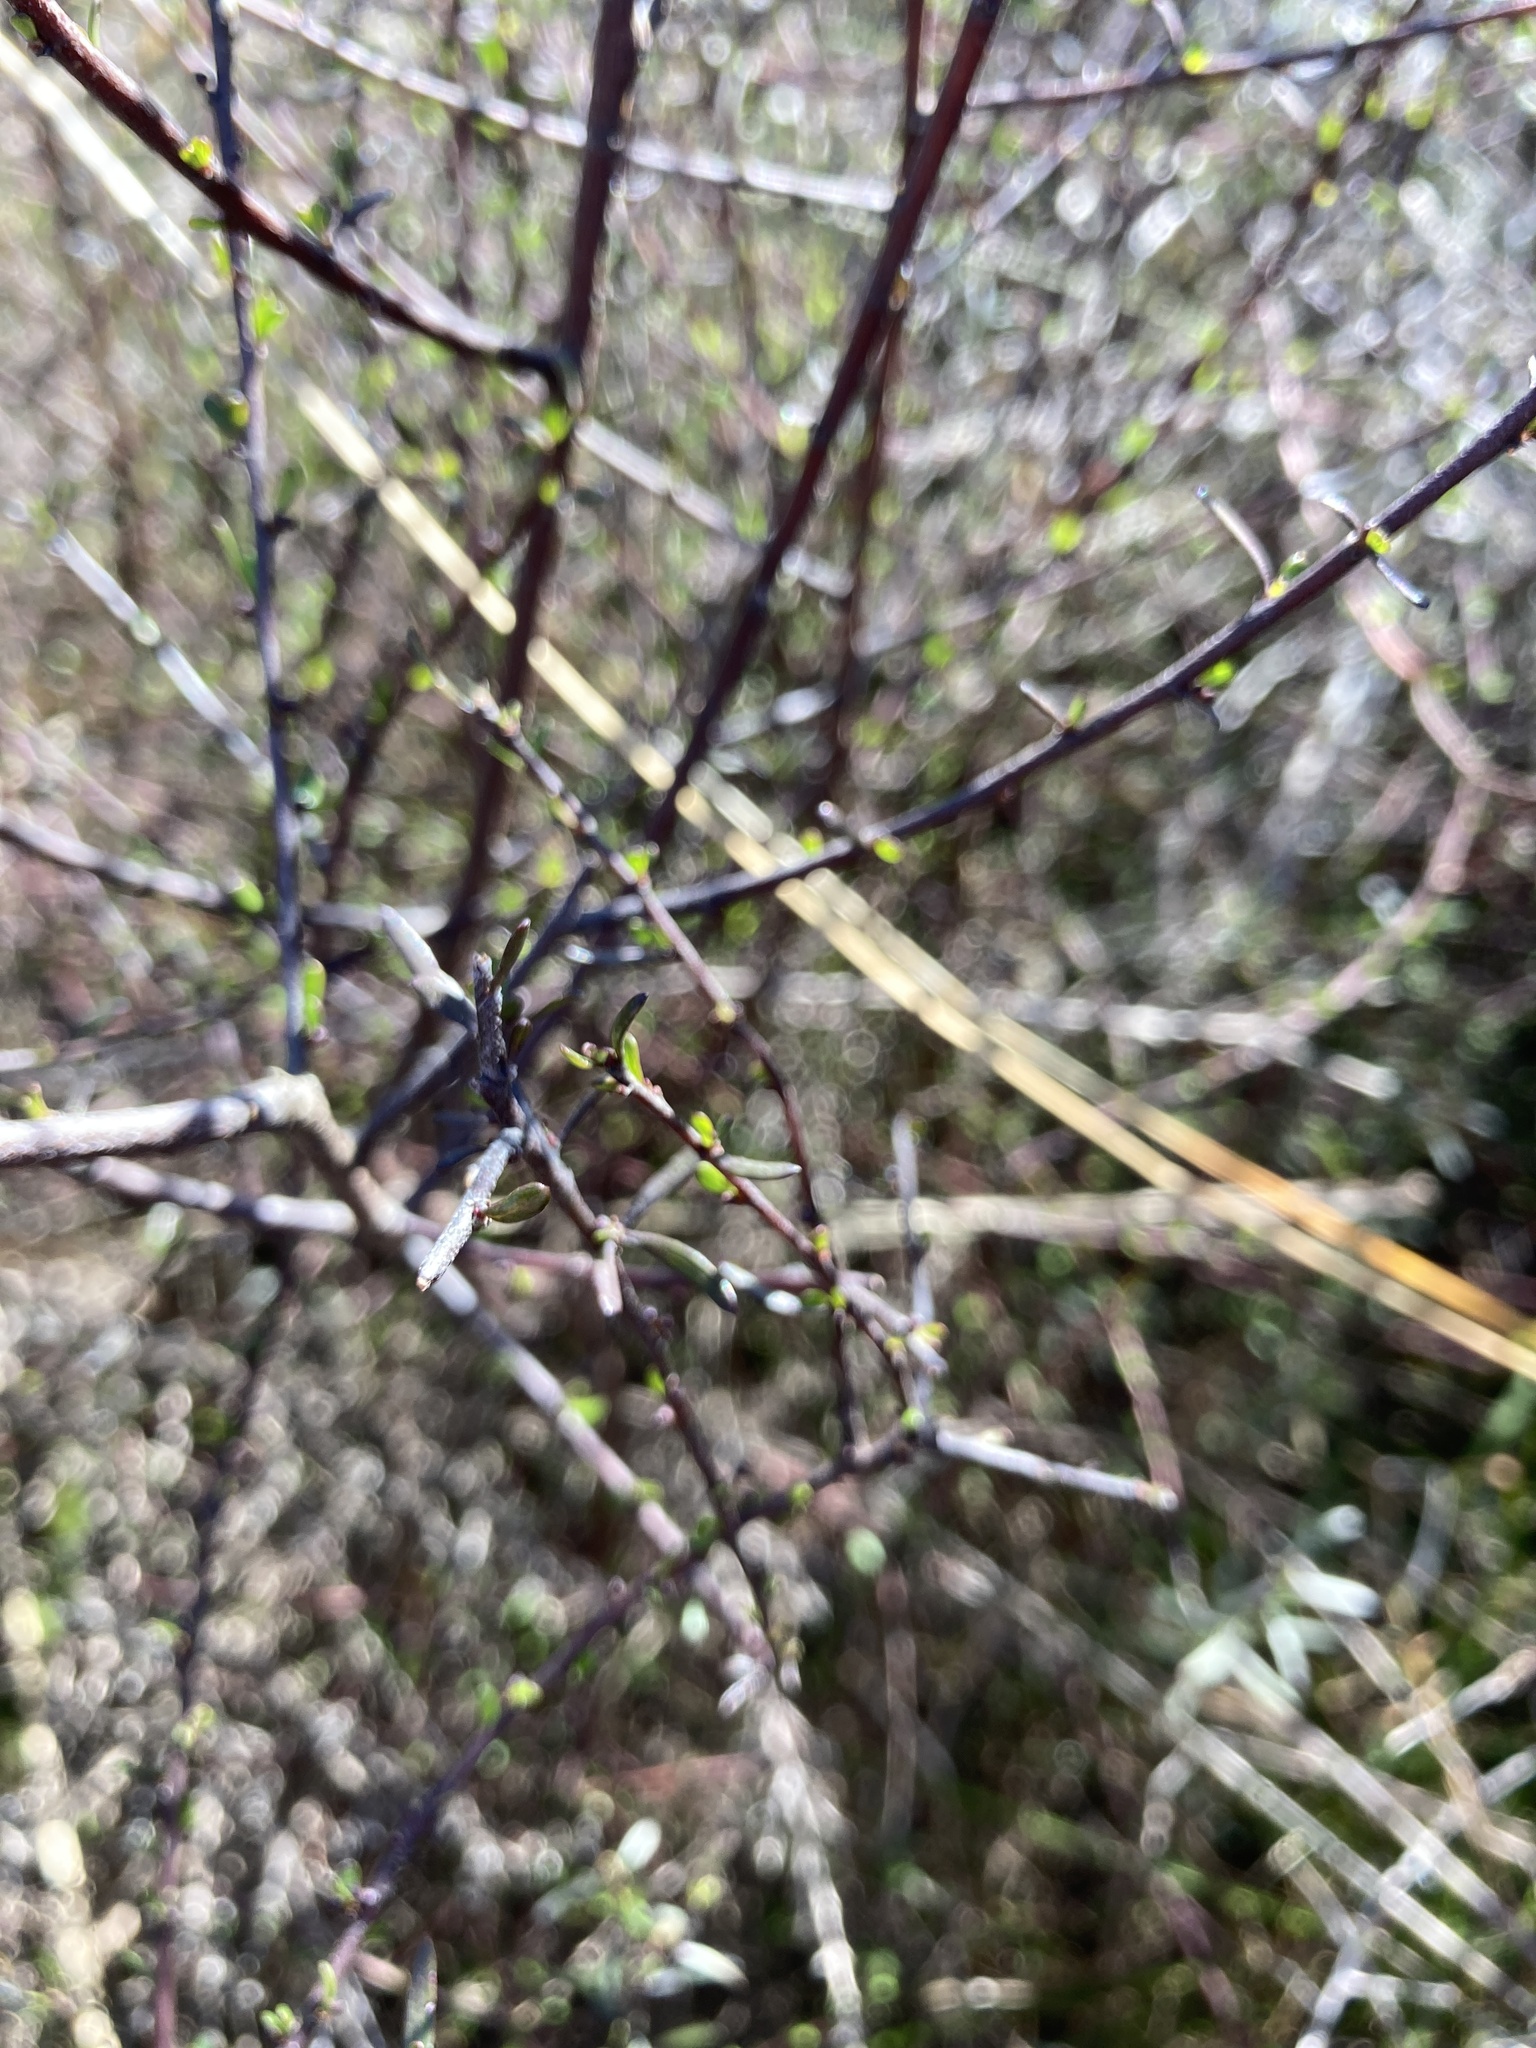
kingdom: Plantae
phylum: Tracheophyta
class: Magnoliopsida
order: Malvales
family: Malvaceae
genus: Plagianthus
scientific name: Plagianthus divaricatus
